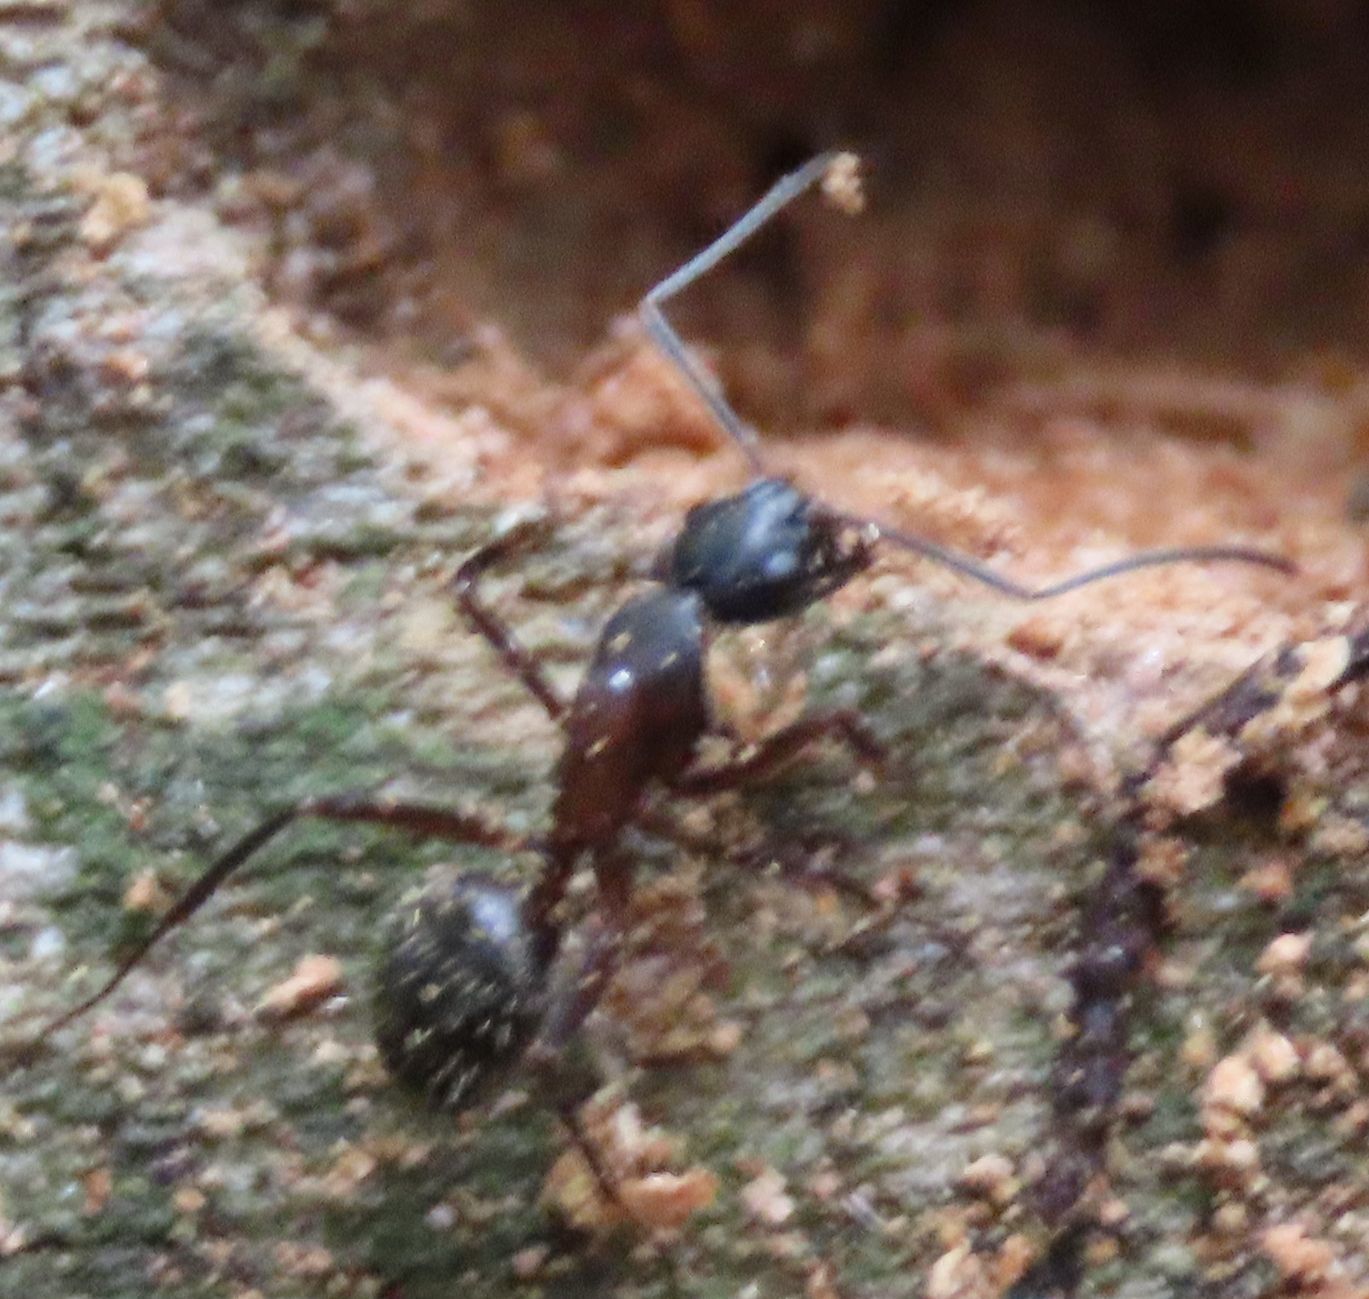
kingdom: Animalia
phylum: Arthropoda
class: Insecta
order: Hymenoptera
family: Formicidae
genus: Camponotus
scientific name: Camponotus chromaiodes
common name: Red carpenter ant
